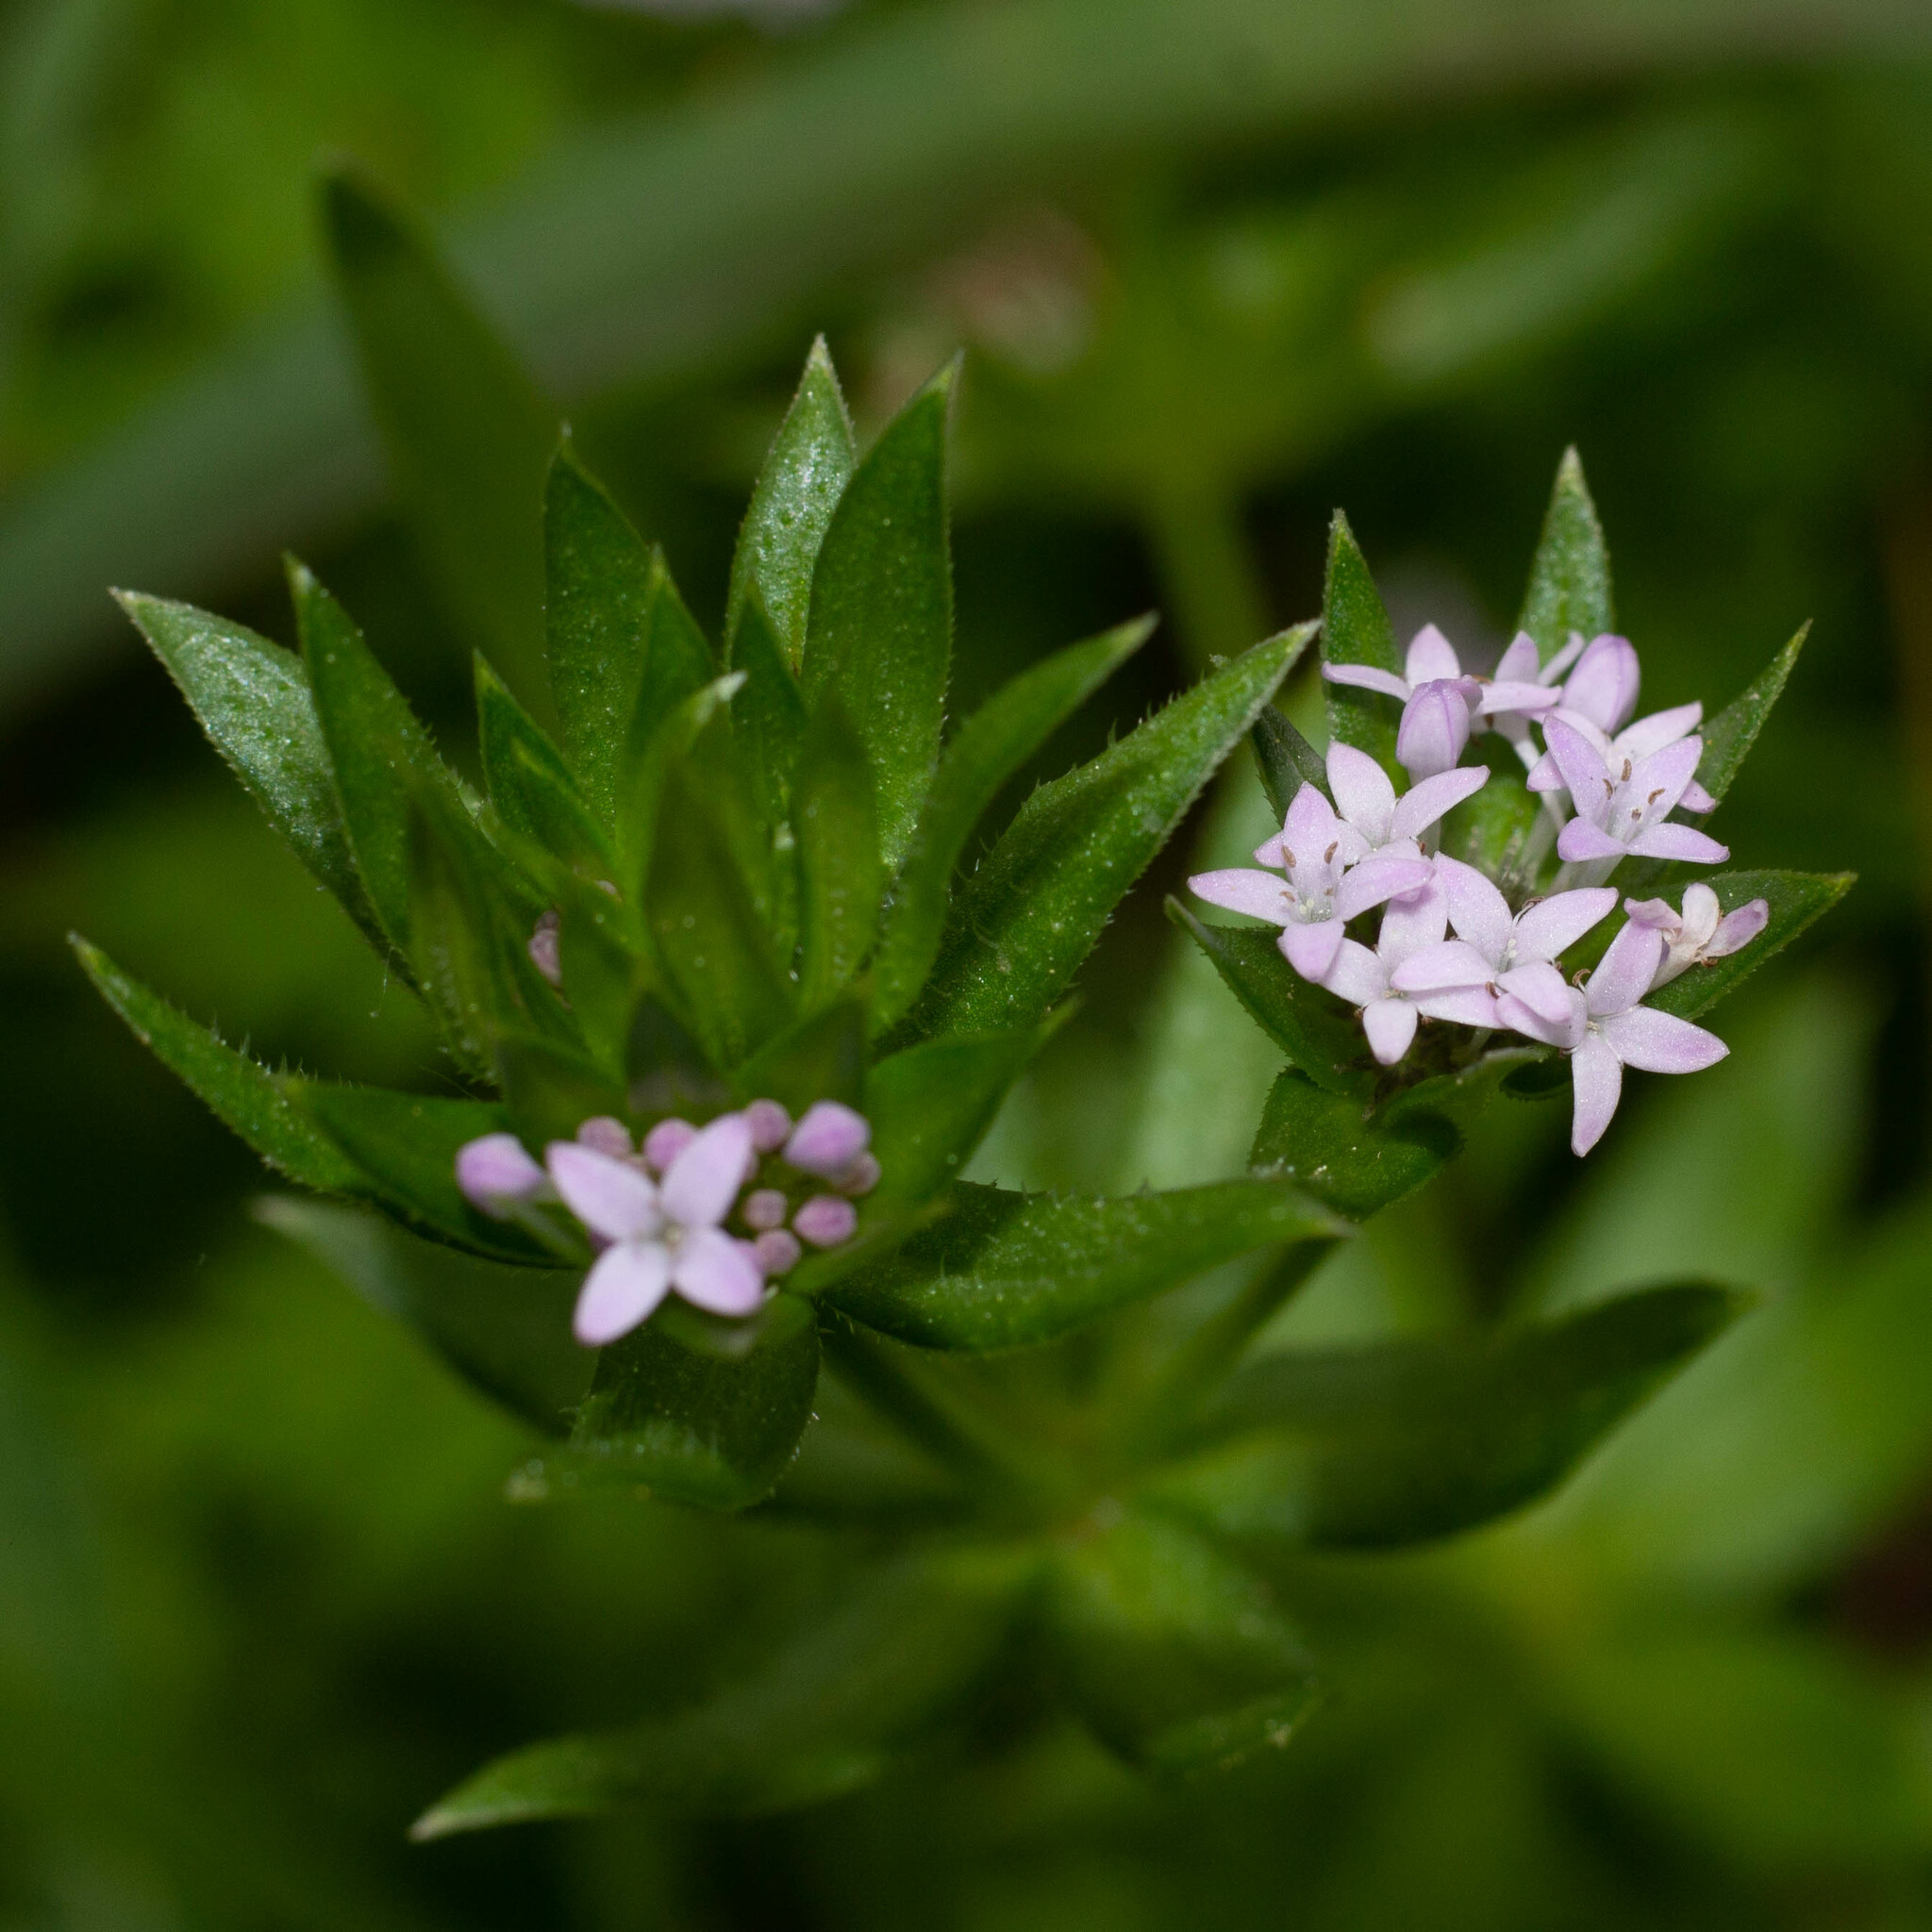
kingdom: Plantae
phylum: Tracheophyta
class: Magnoliopsida
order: Gentianales
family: Rubiaceae
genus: Sherardia
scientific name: Sherardia arvensis
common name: Field madder
